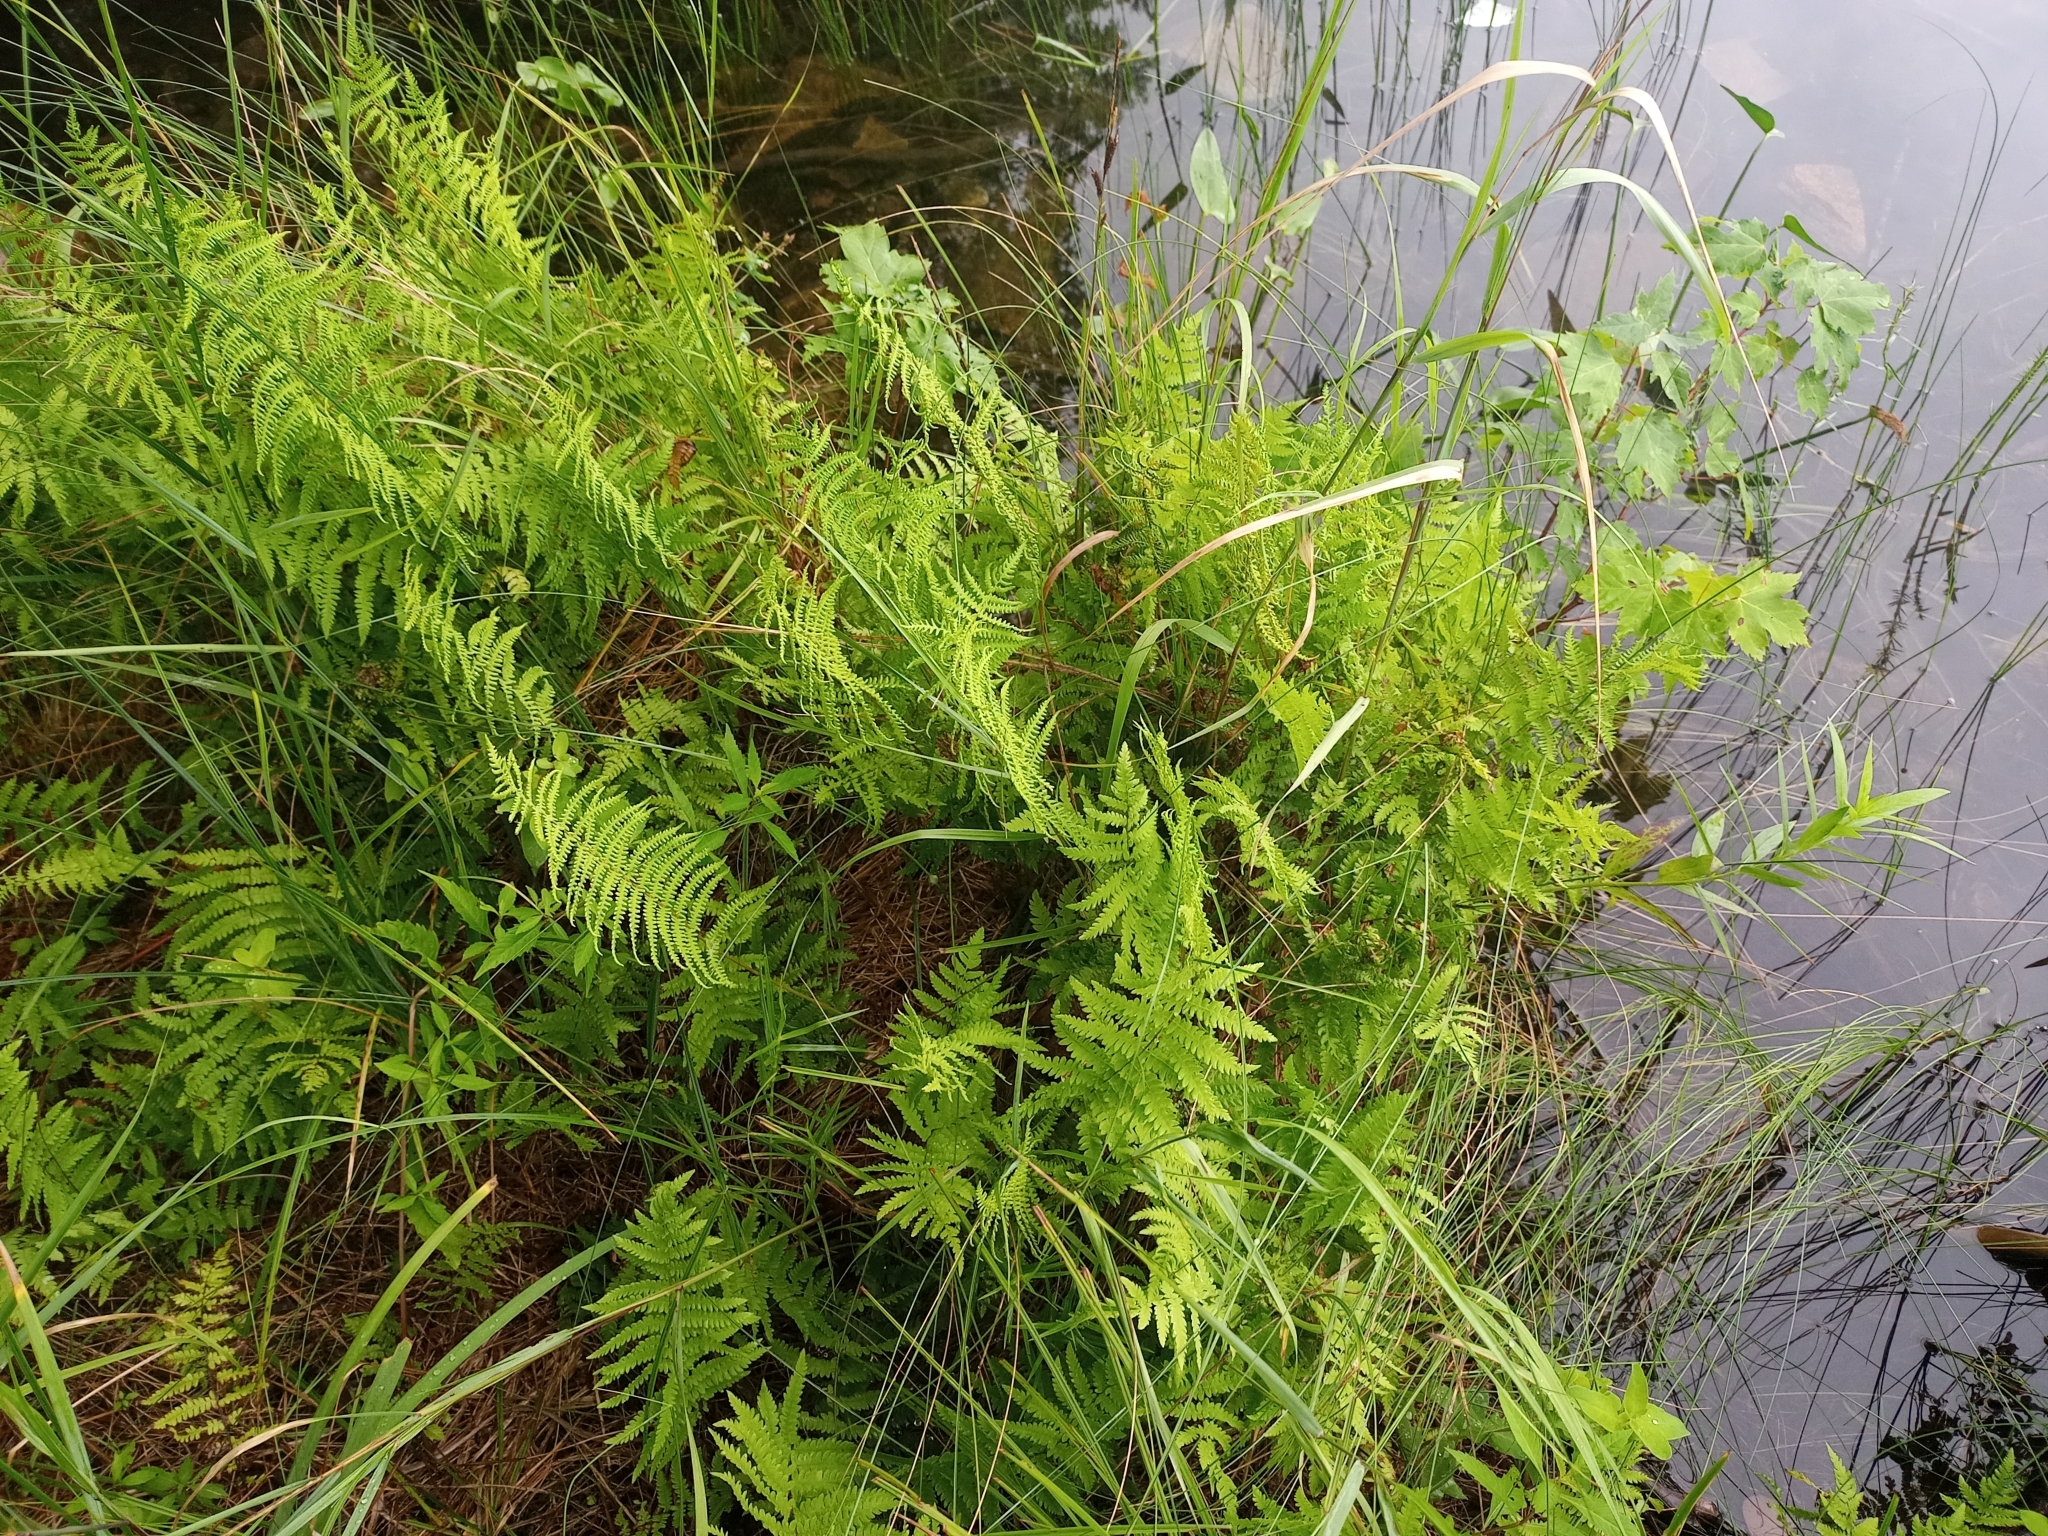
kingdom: Plantae
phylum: Tracheophyta
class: Polypodiopsida
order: Polypodiales
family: Thelypteridaceae
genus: Thelypteris
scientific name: Thelypteris palustris
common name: Marsh fern
